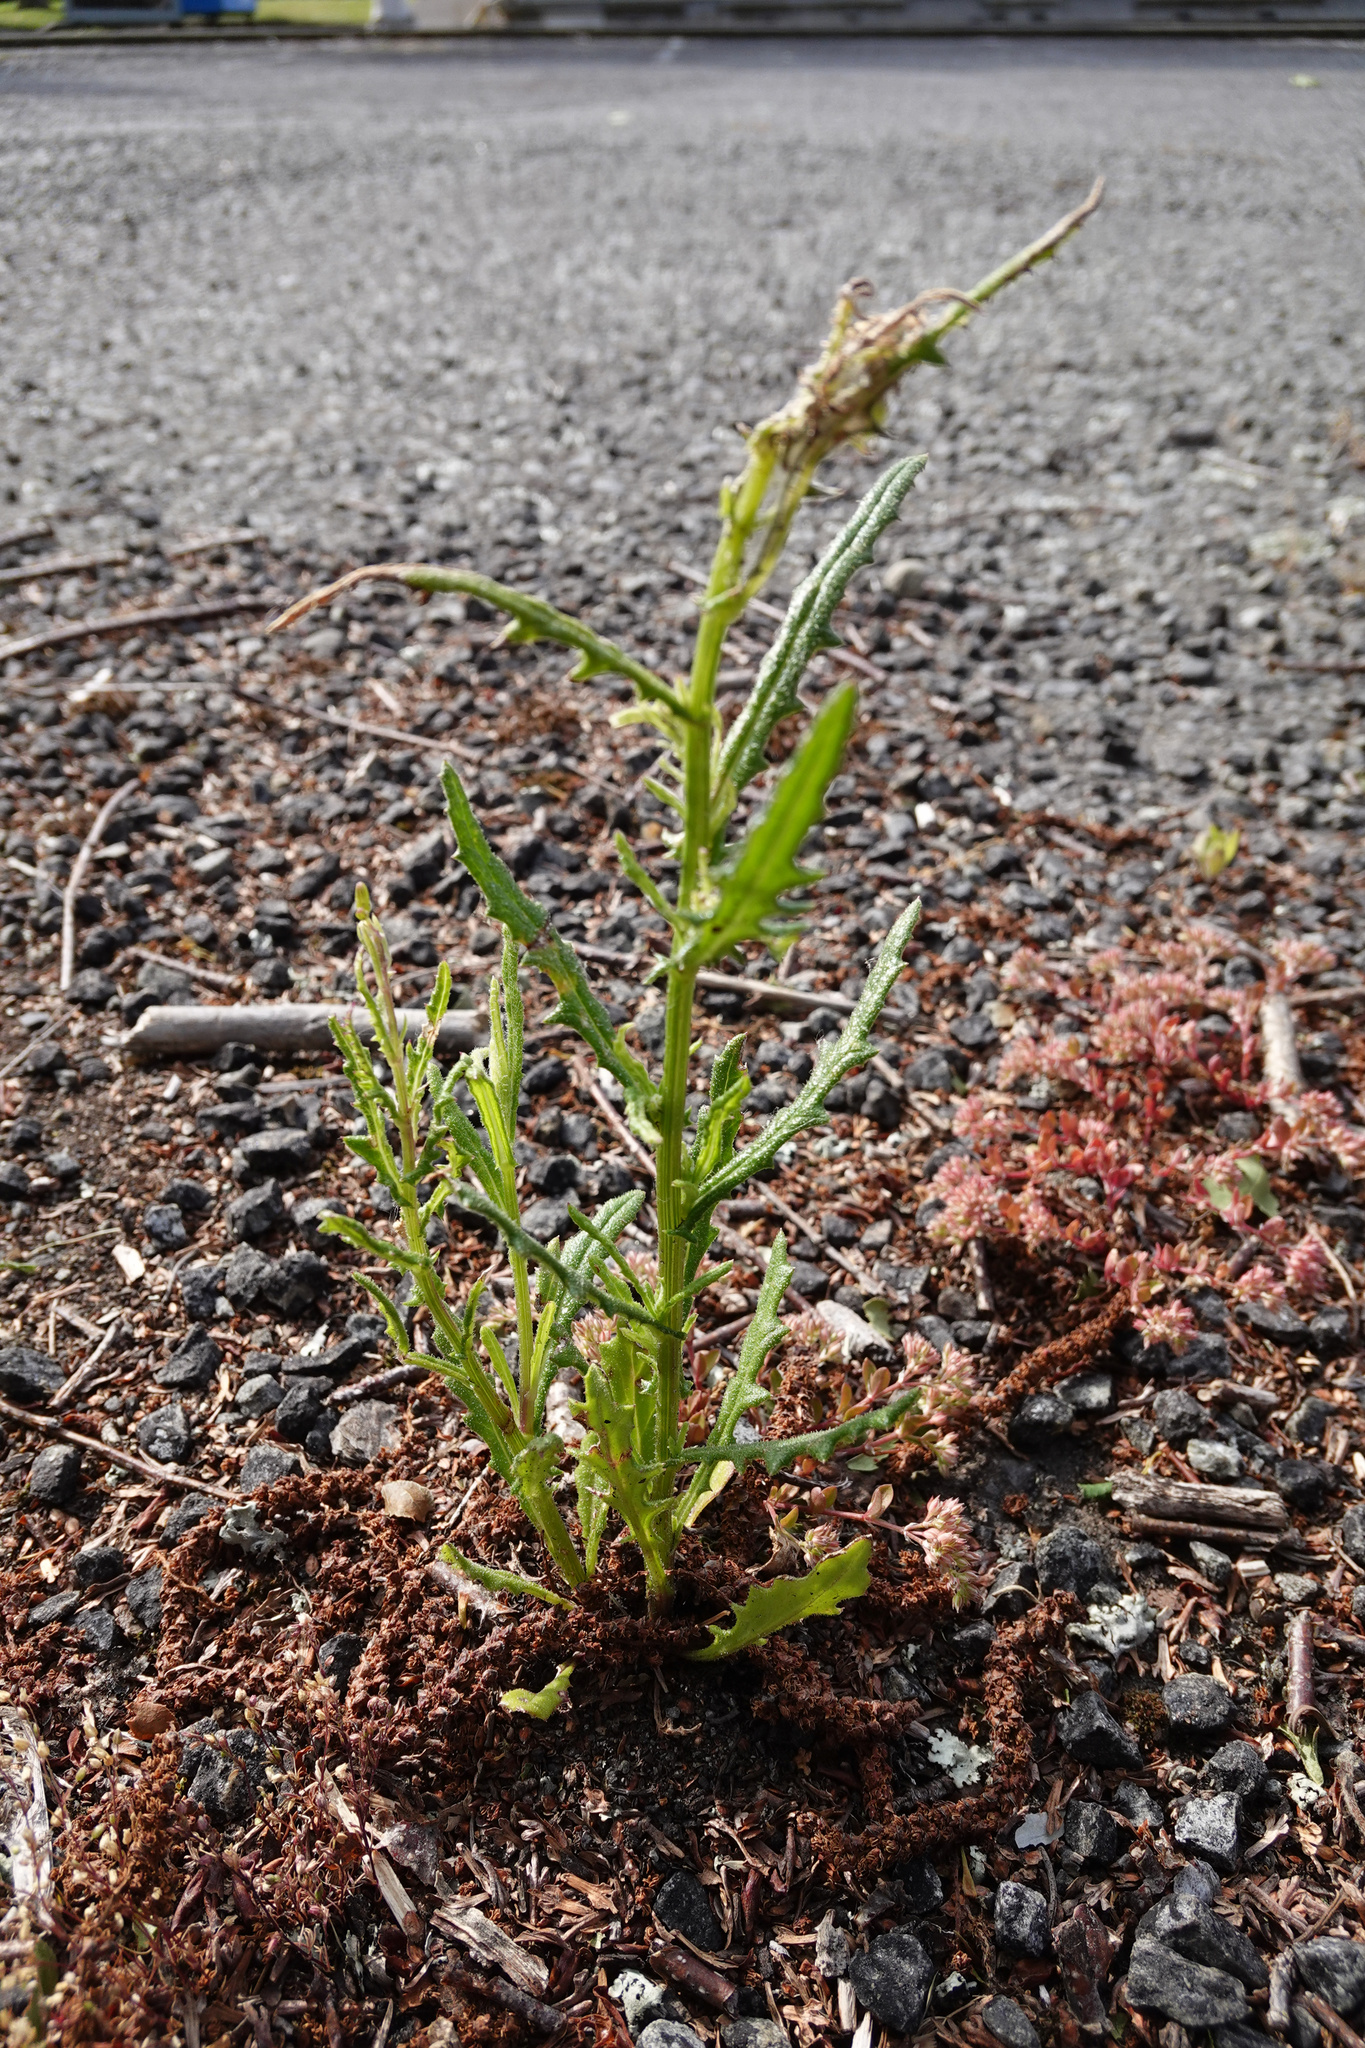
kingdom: Plantae
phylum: Tracheophyta
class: Magnoliopsida
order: Asterales
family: Asteraceae
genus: Senecio
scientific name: Senecio hispidulus
